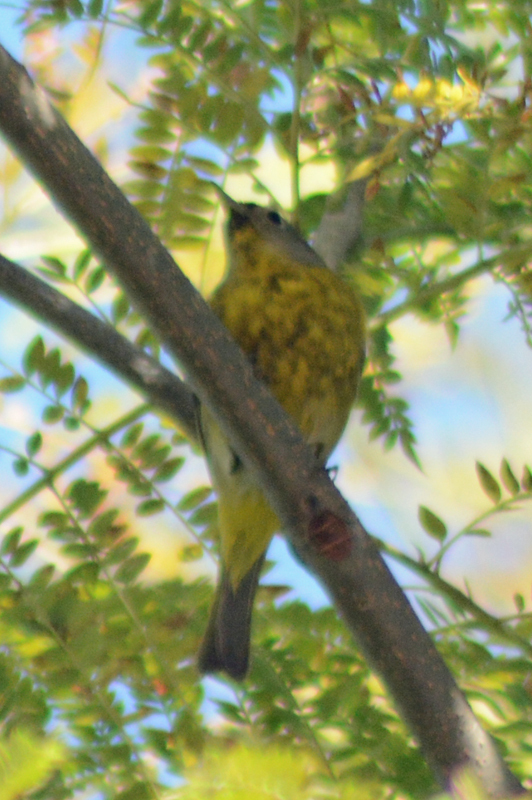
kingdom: Animalia
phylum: Chordata
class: Aves
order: Passeriformes
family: Parulidae
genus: Leiothlypis
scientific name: Leiothlypis ruficapilla
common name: Nashville warbler
